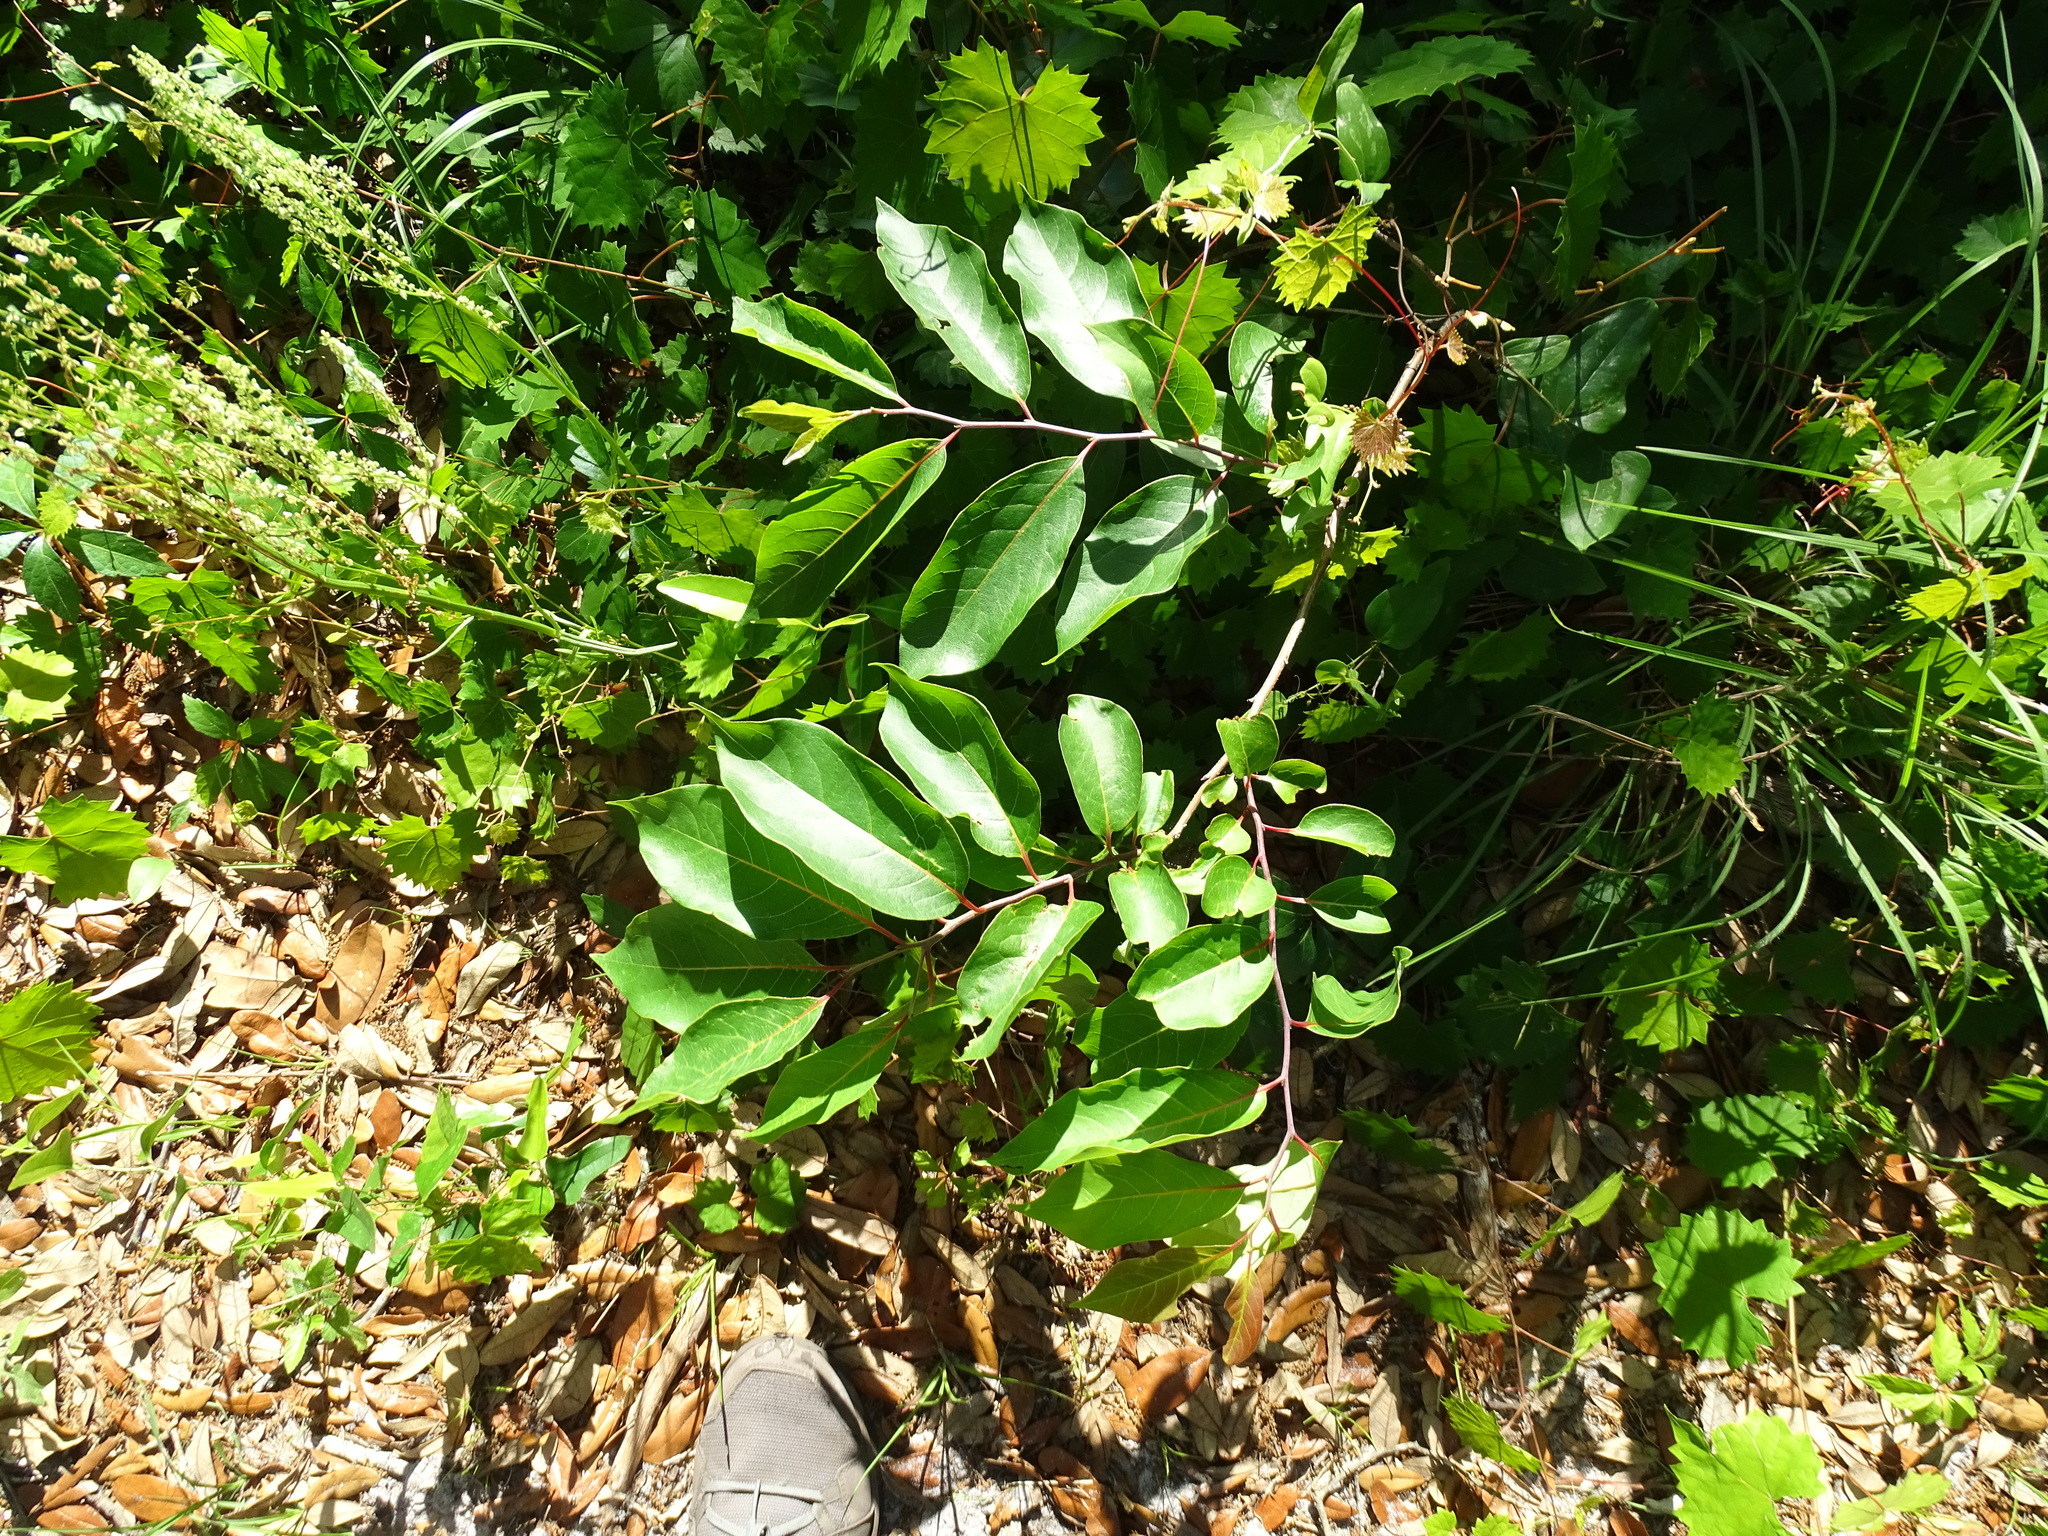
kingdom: Plantae
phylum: Tracheophyta
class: Magnoliopsida
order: Ericales
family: Ebenaceae
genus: Diospyros
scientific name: Diospyros virginiana
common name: Persimmon
